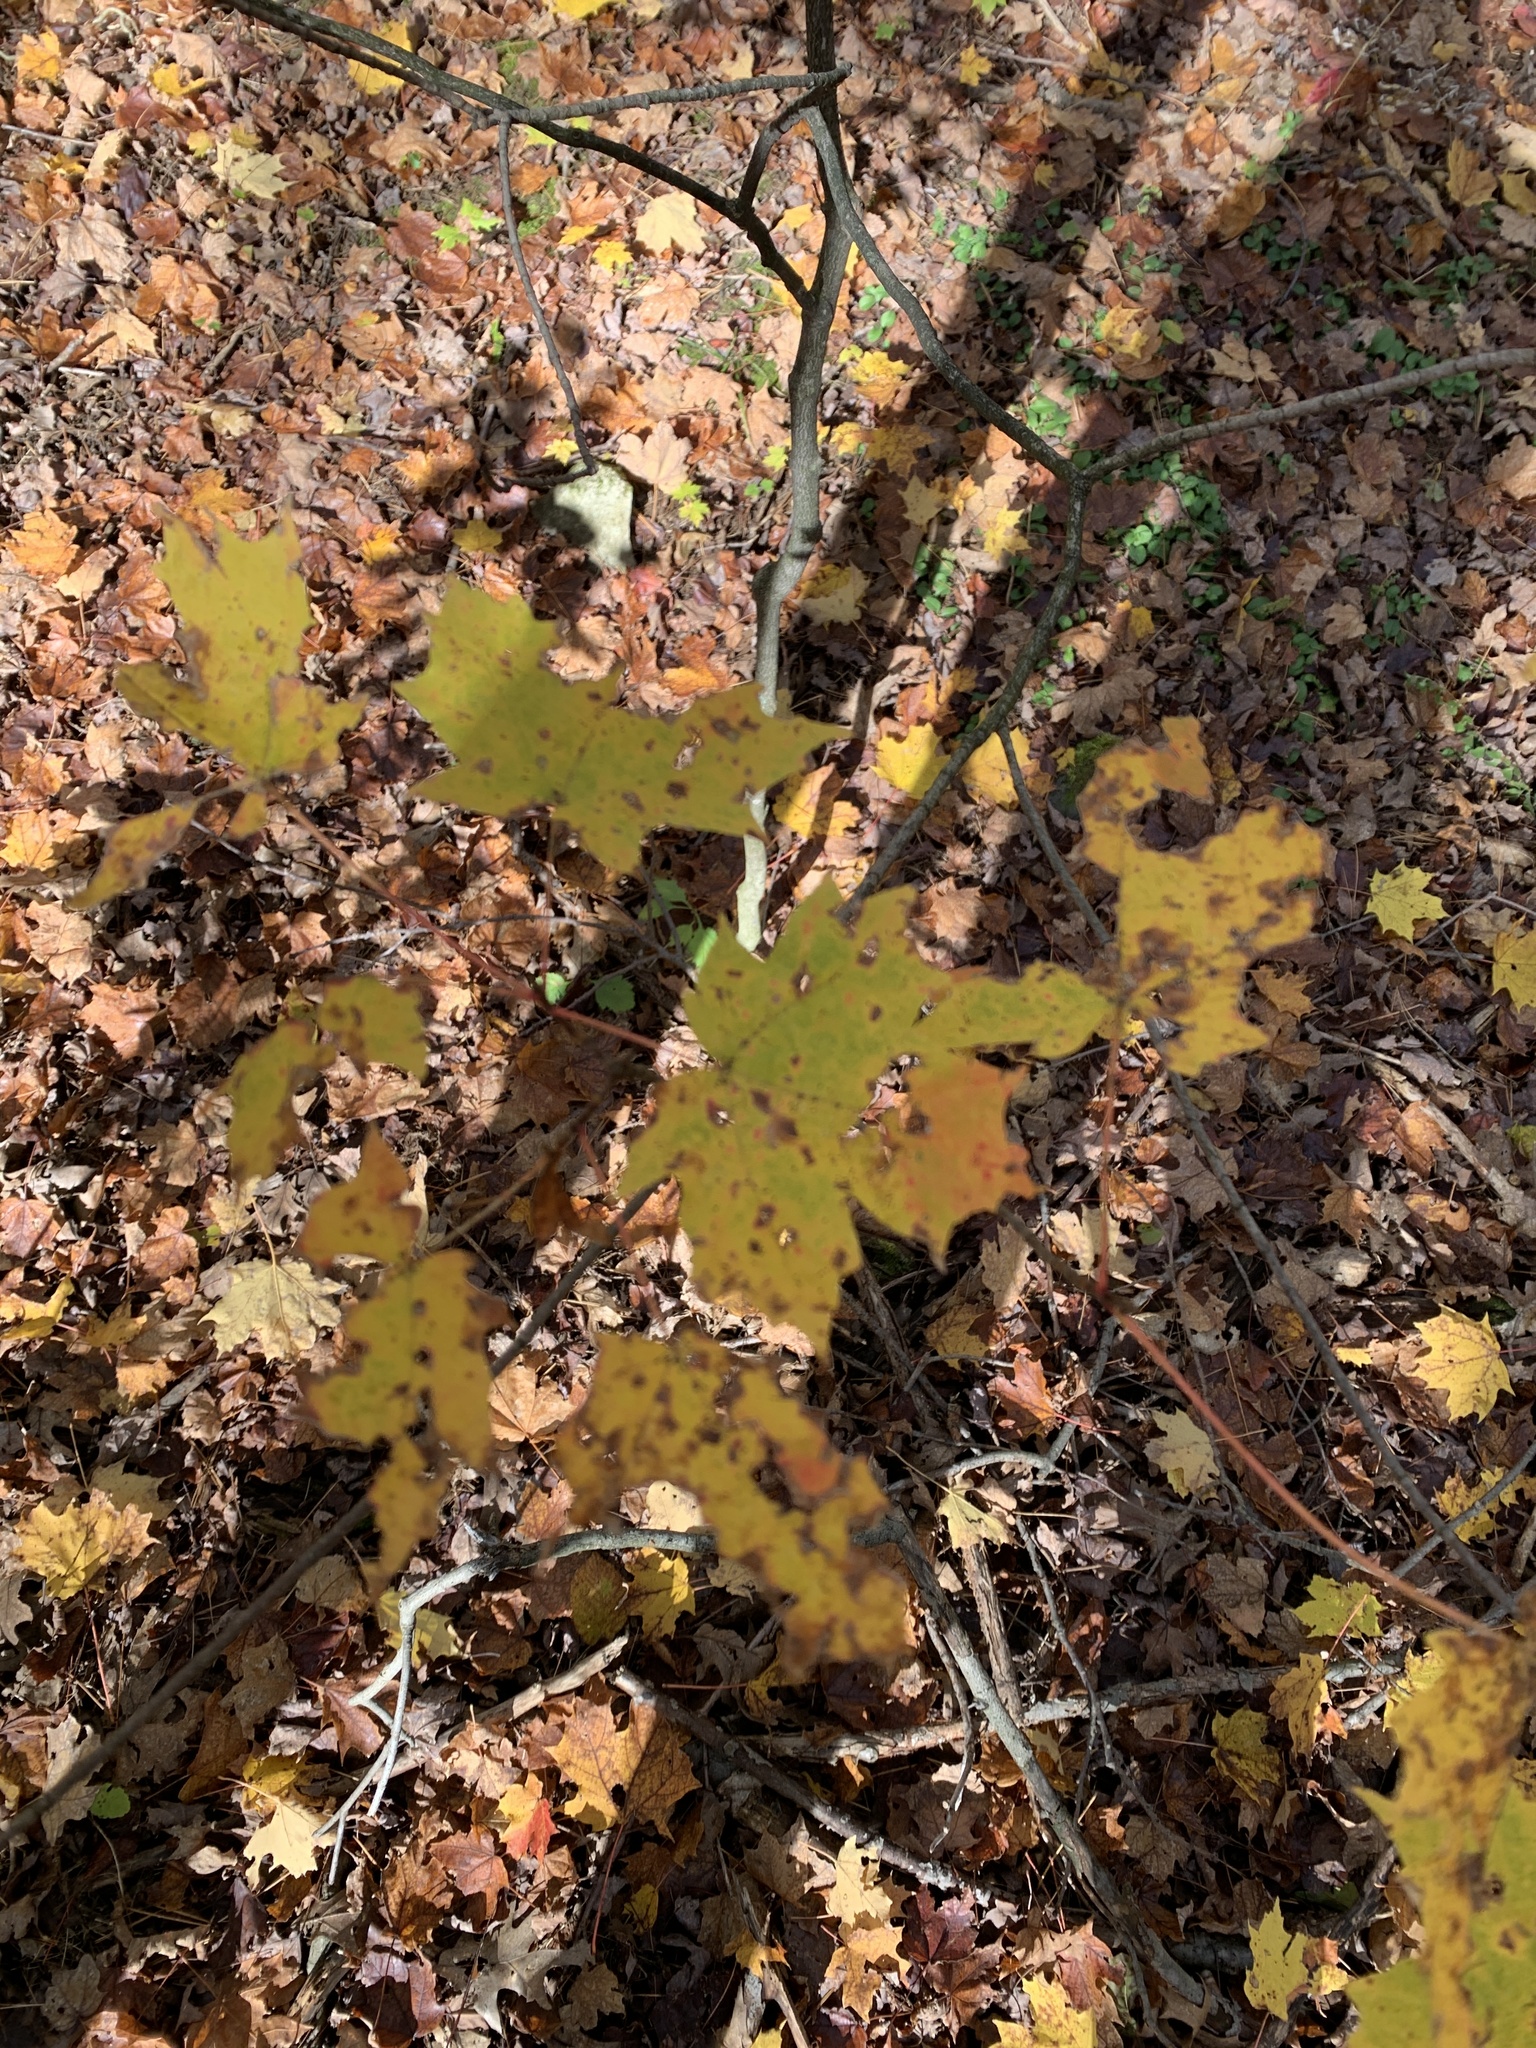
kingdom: Plantae
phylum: Tracheophyta
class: Magnoliopsida
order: Sapindales
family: Sapindaceae
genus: Acer
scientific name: Acer saccharum
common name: Sugar maple
